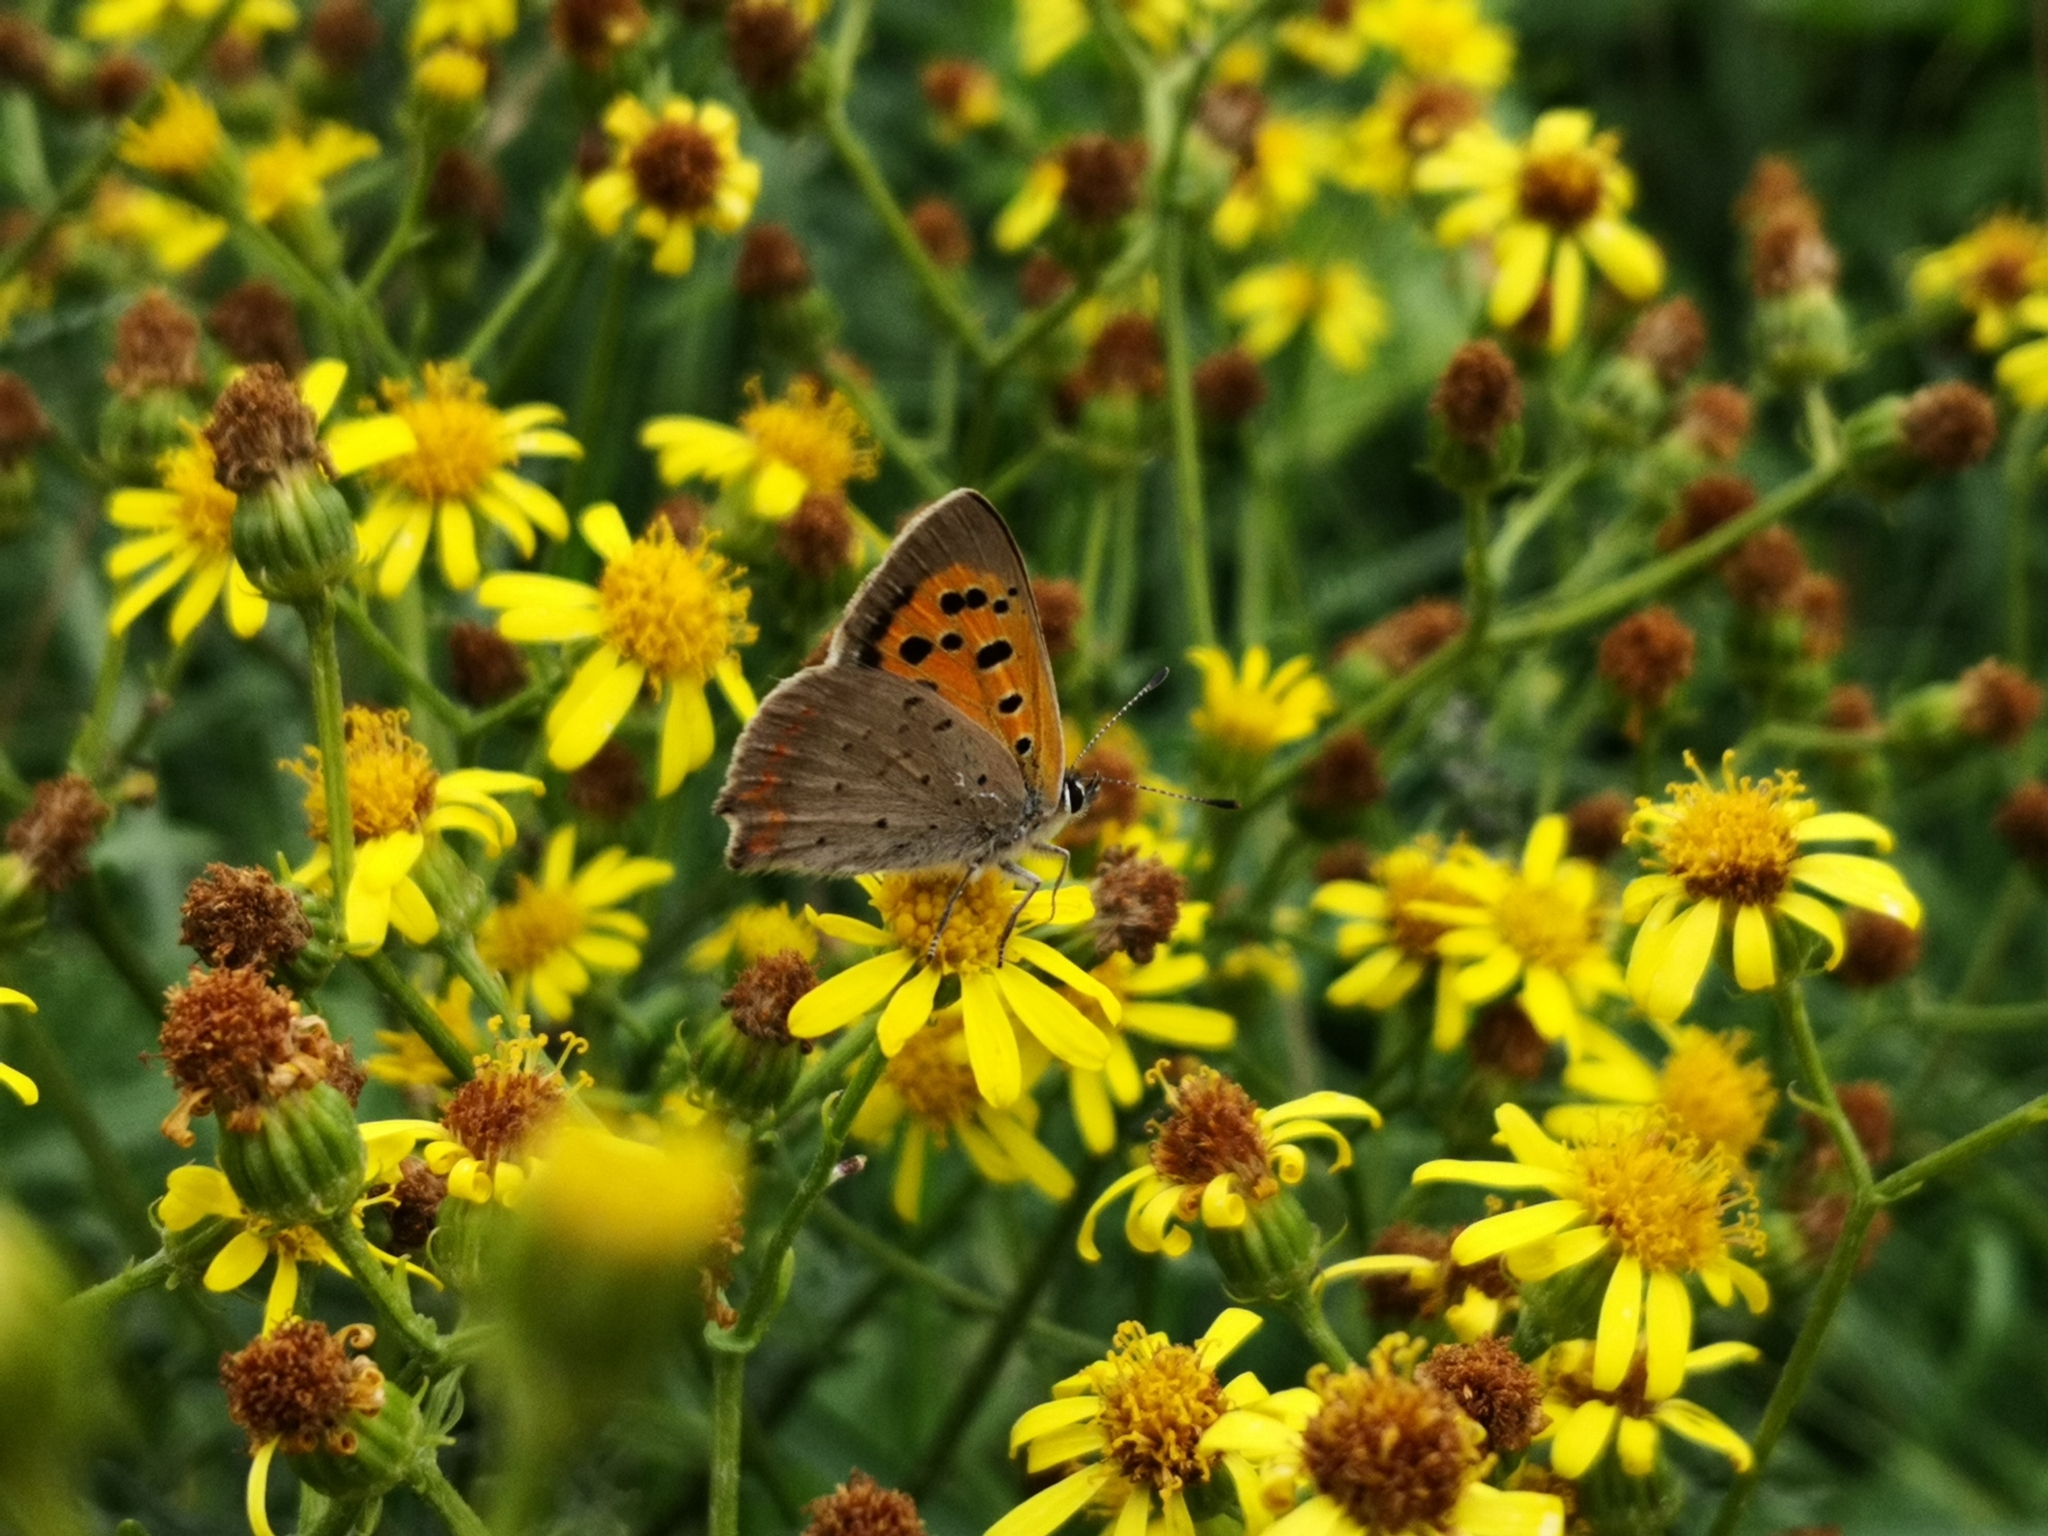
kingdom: Animalia
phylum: Arthropoda
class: Insecta
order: Lepidoptera
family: Lycaenidae
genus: Lycaena
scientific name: Lycaena phlaeas
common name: Small copper
